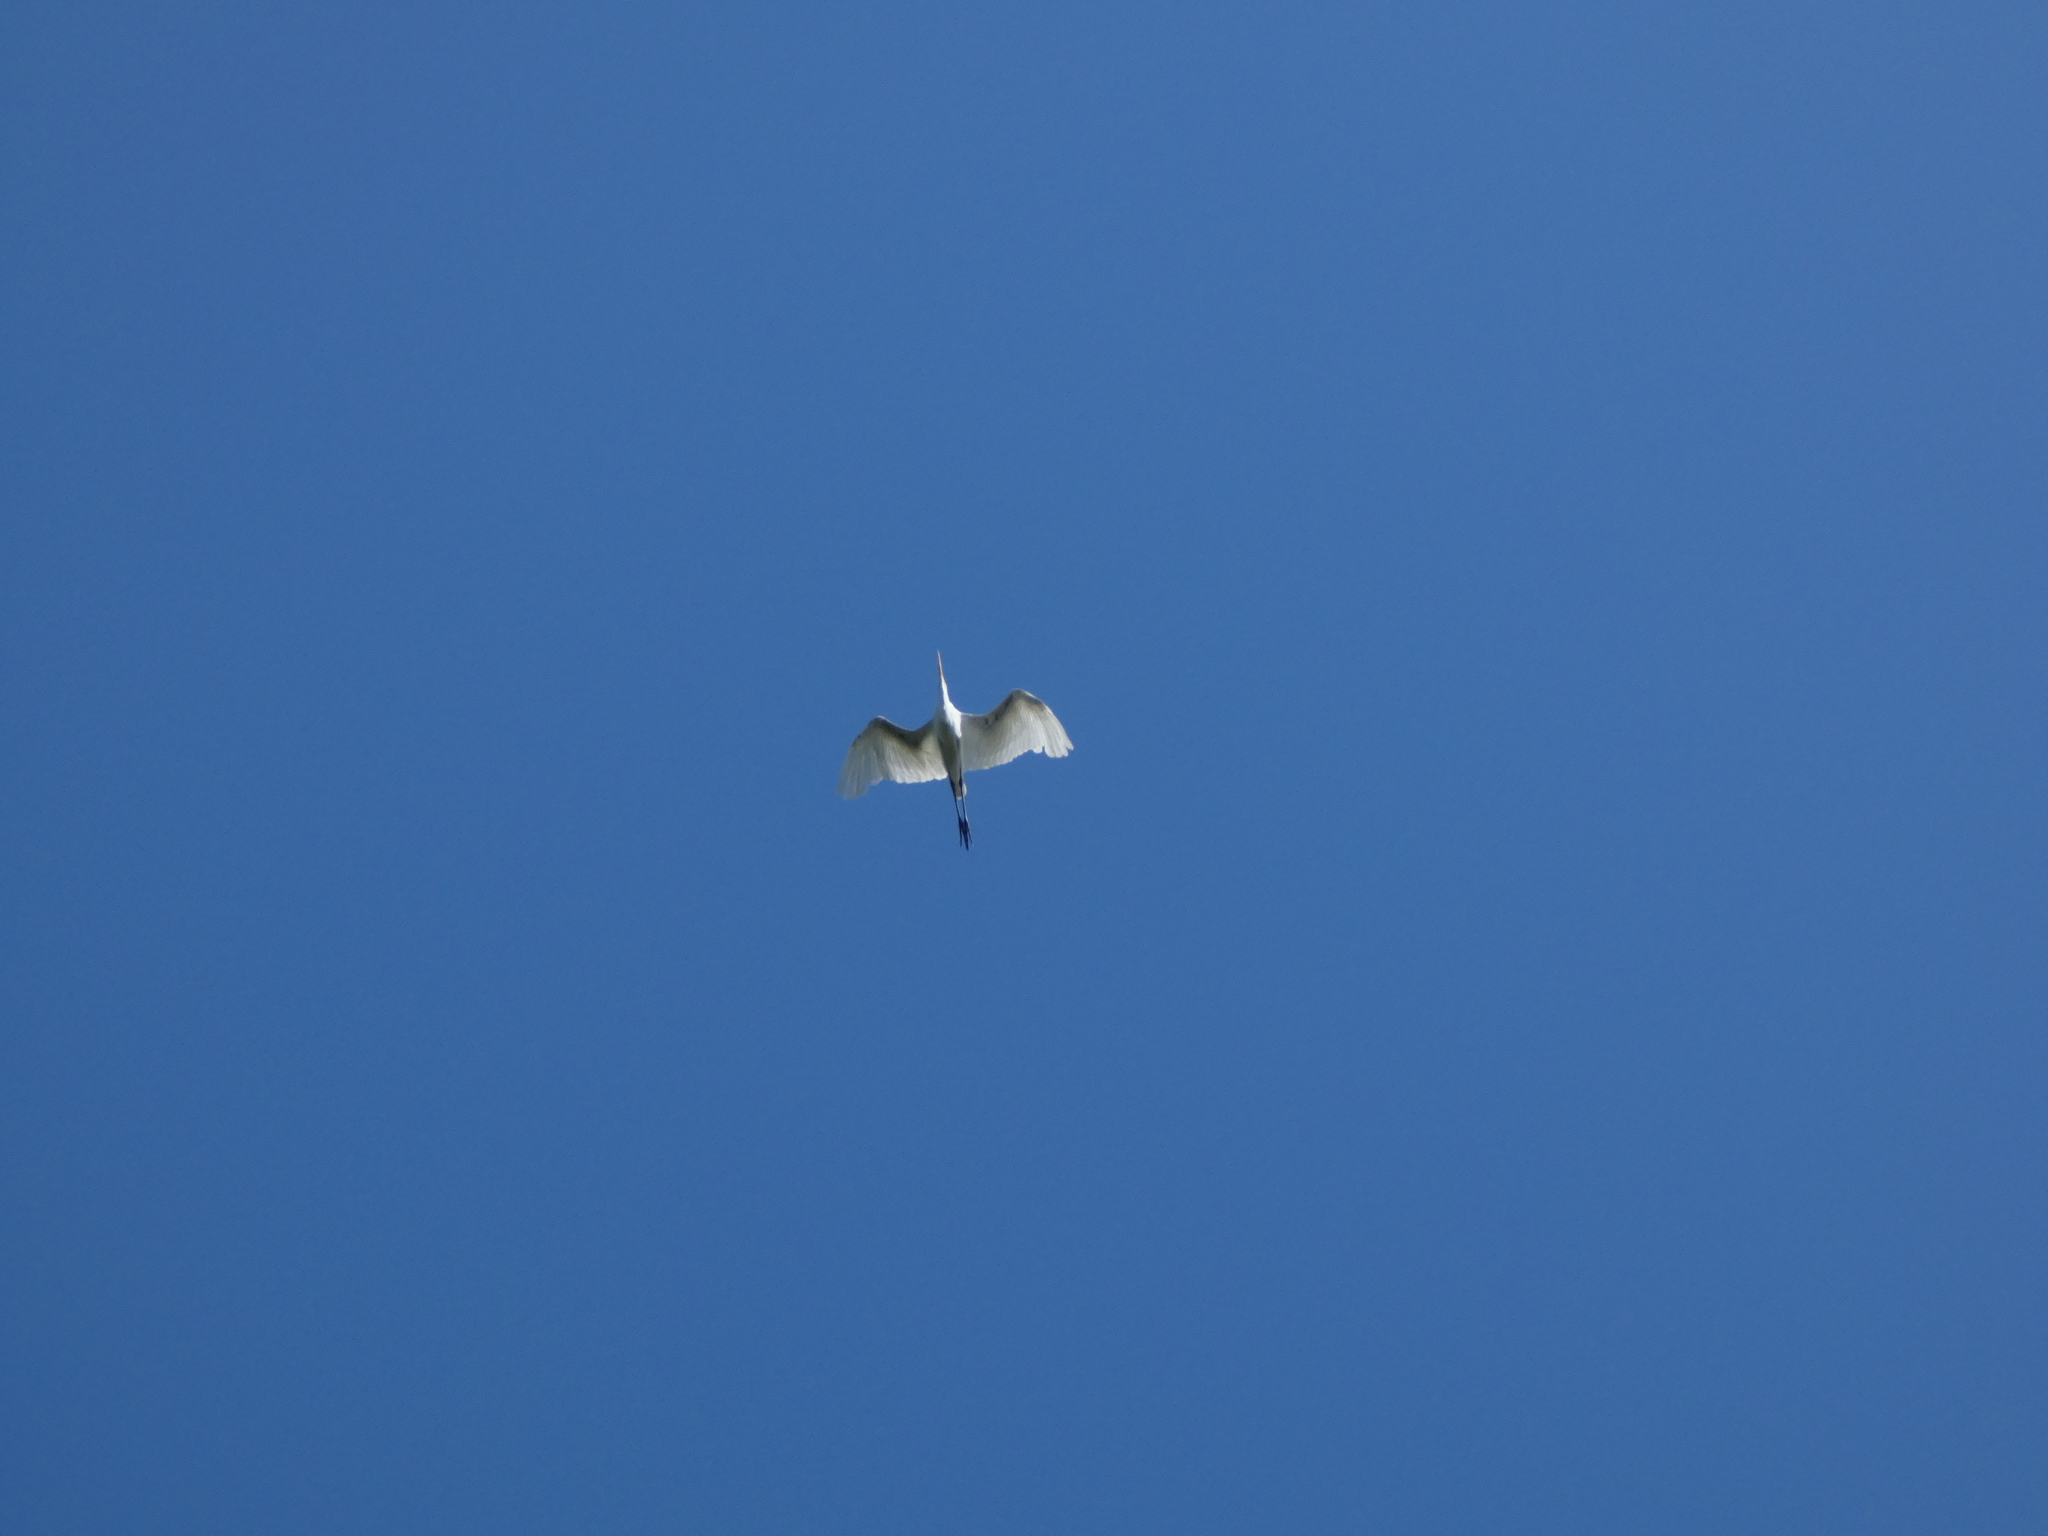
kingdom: Animalia
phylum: Chordata
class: Aves
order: Pelecaniformes
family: Ardeidae
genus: Ardea
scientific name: Ardea alba
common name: Great egret
